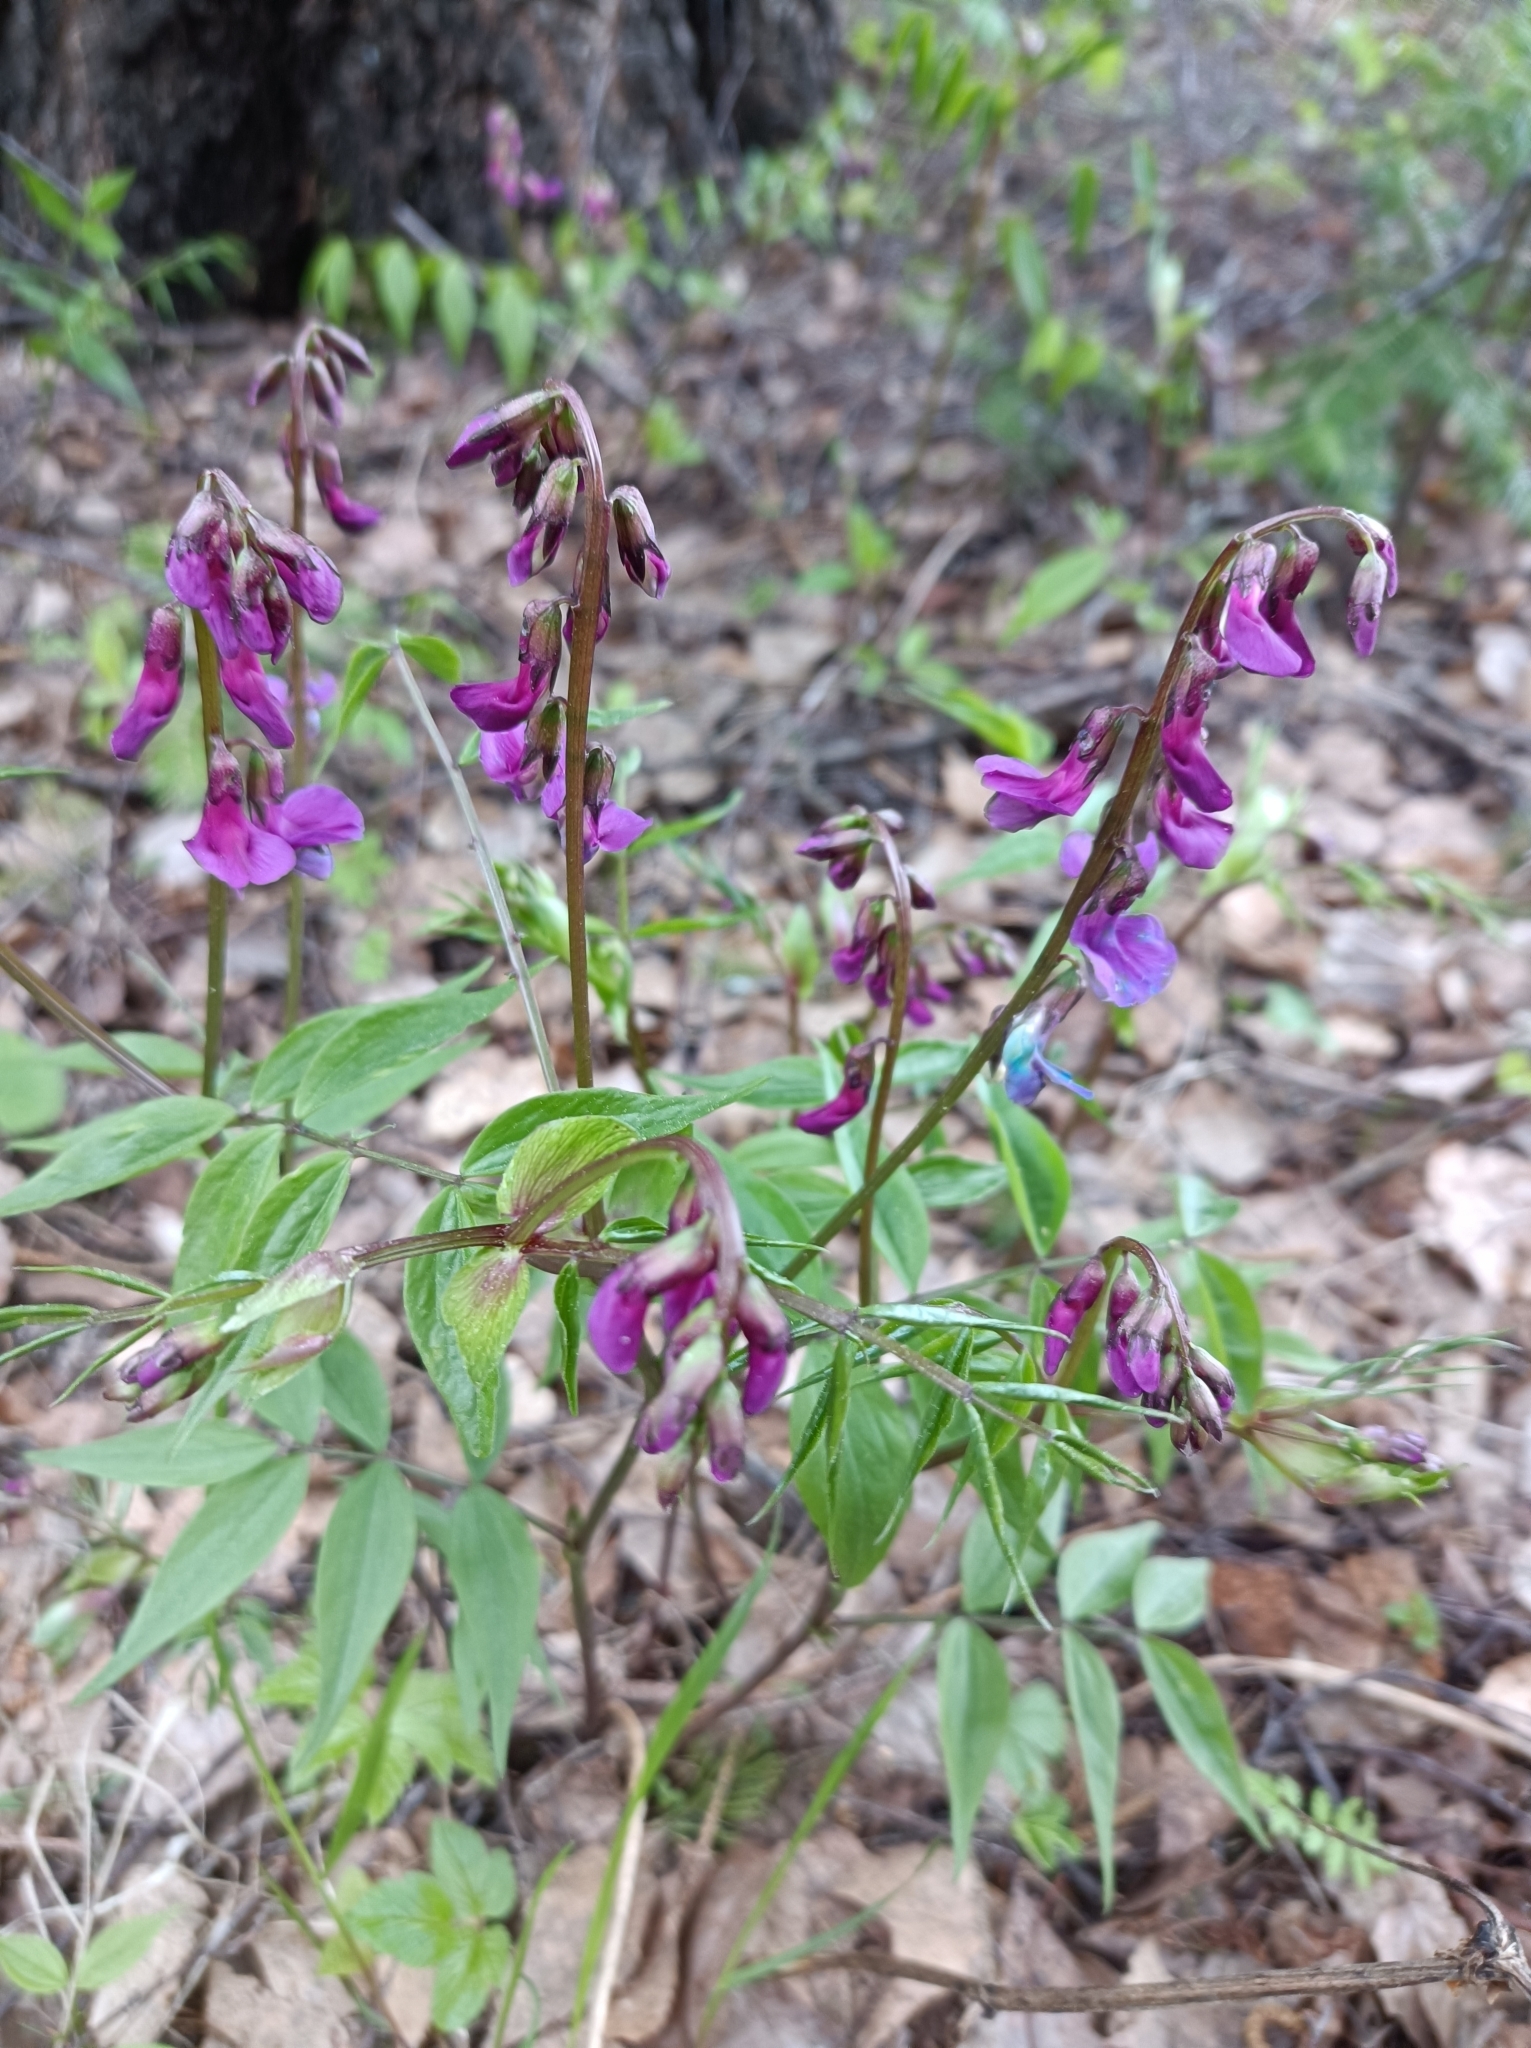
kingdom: Plantae
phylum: Tracheophyta
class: Magnoliopsida
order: Fabales
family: Fabaceae
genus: Lathyrus
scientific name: Lathyrus vernus
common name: Spring pea
